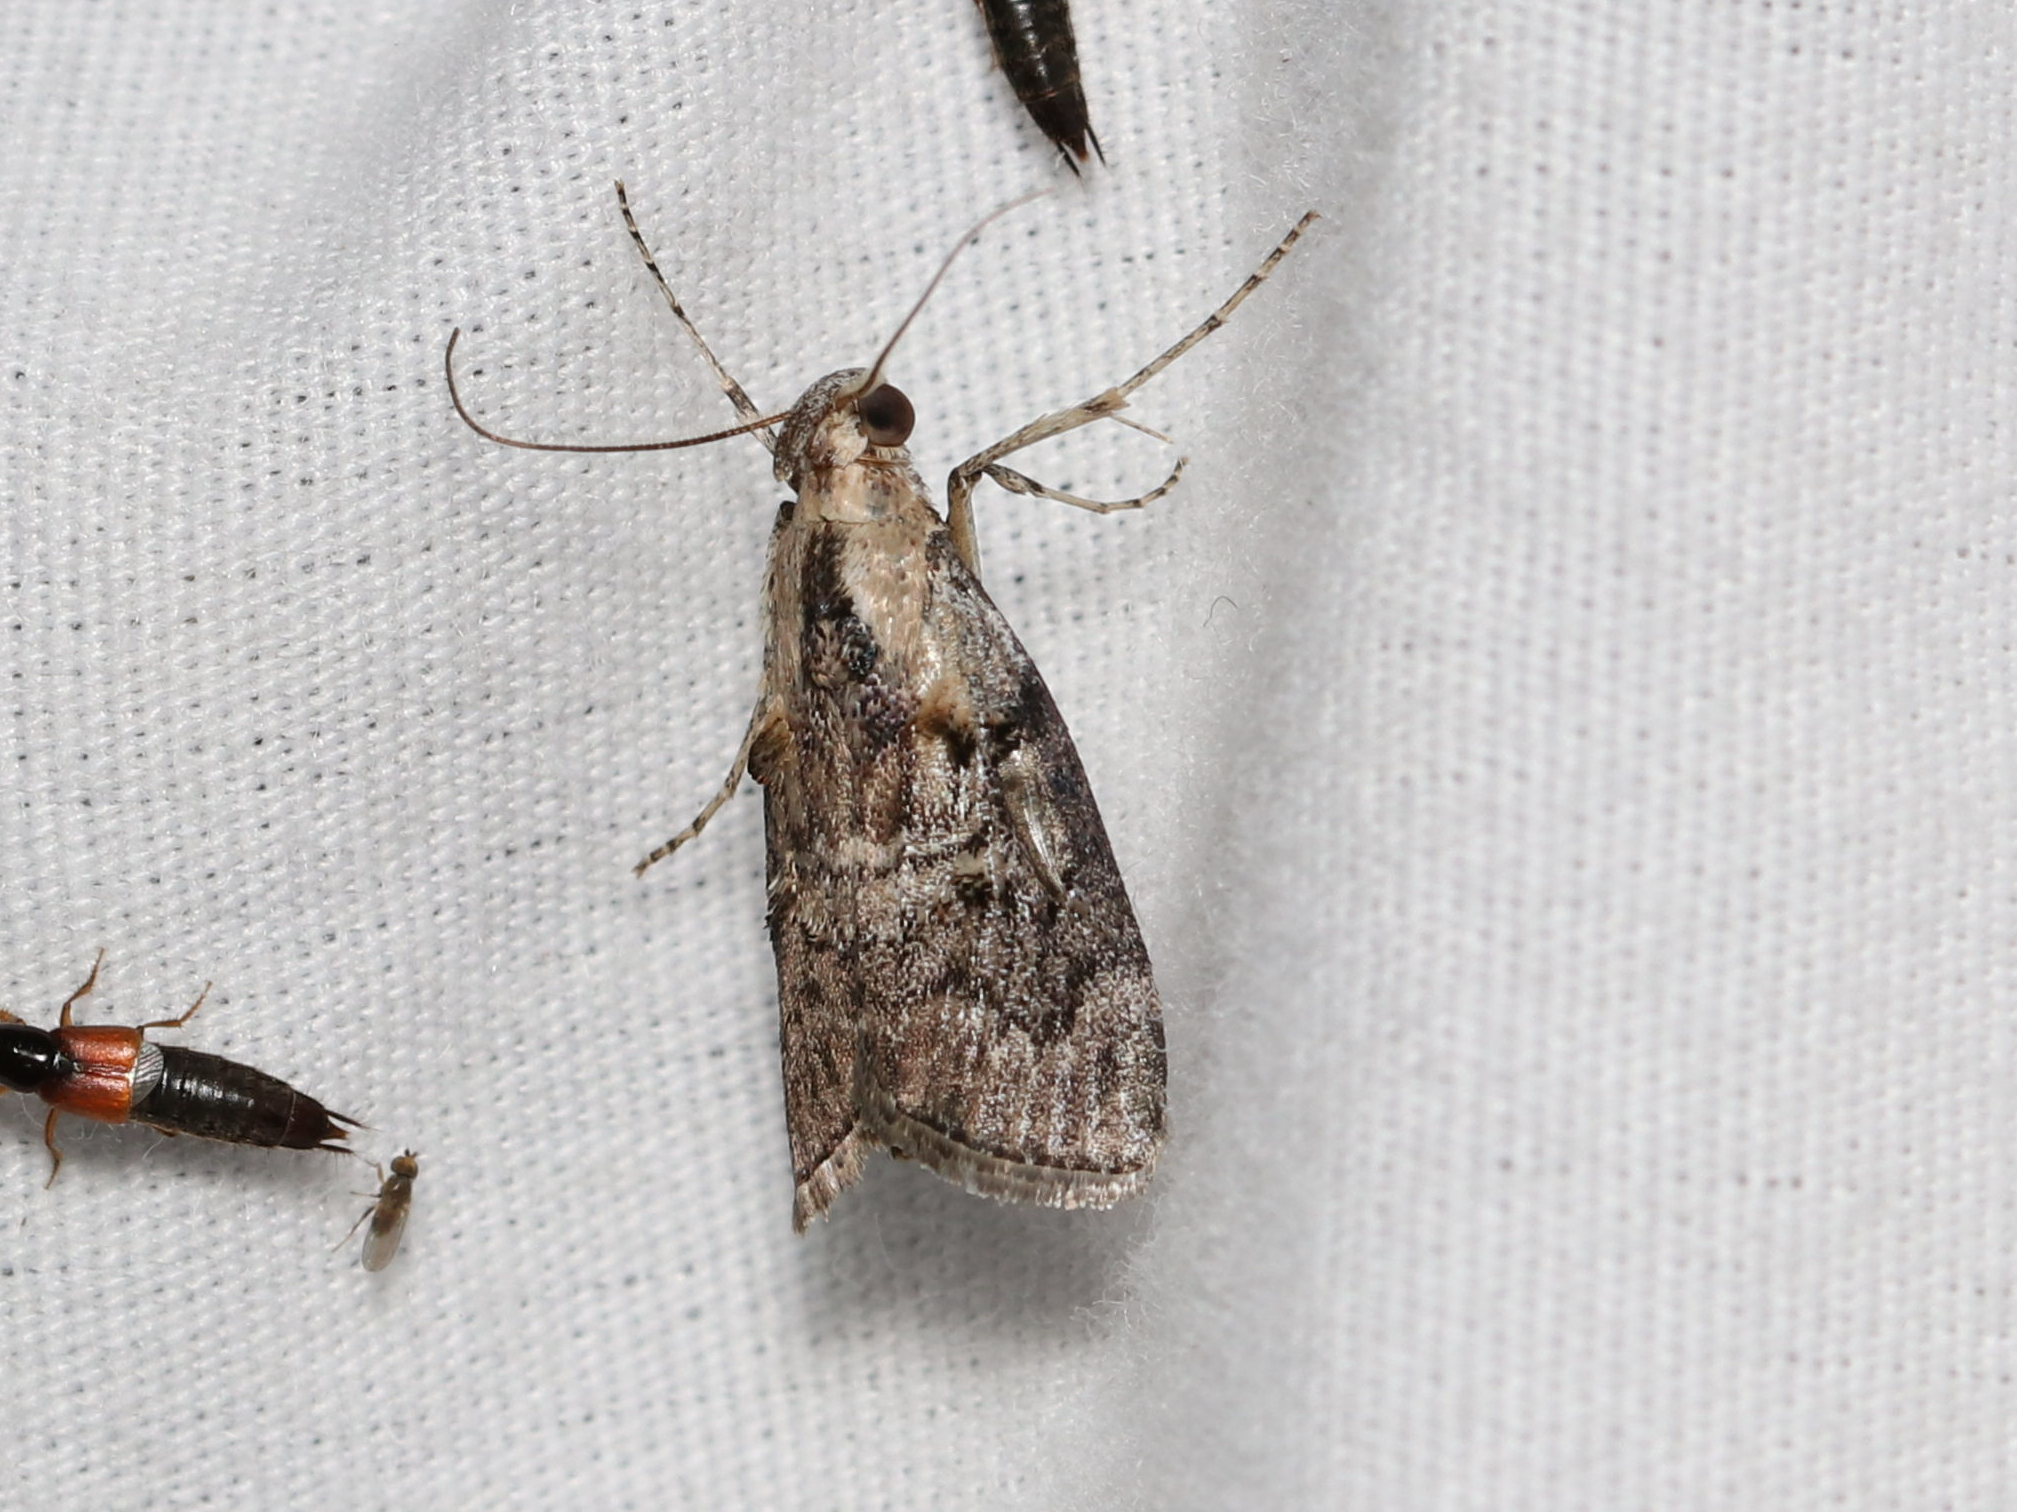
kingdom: Animalia
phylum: Arthropoda
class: Insecta
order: Lepidoptera
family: Pyralidae
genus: Pococera
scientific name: Pococera expandens
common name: Striped oak webworm moth
